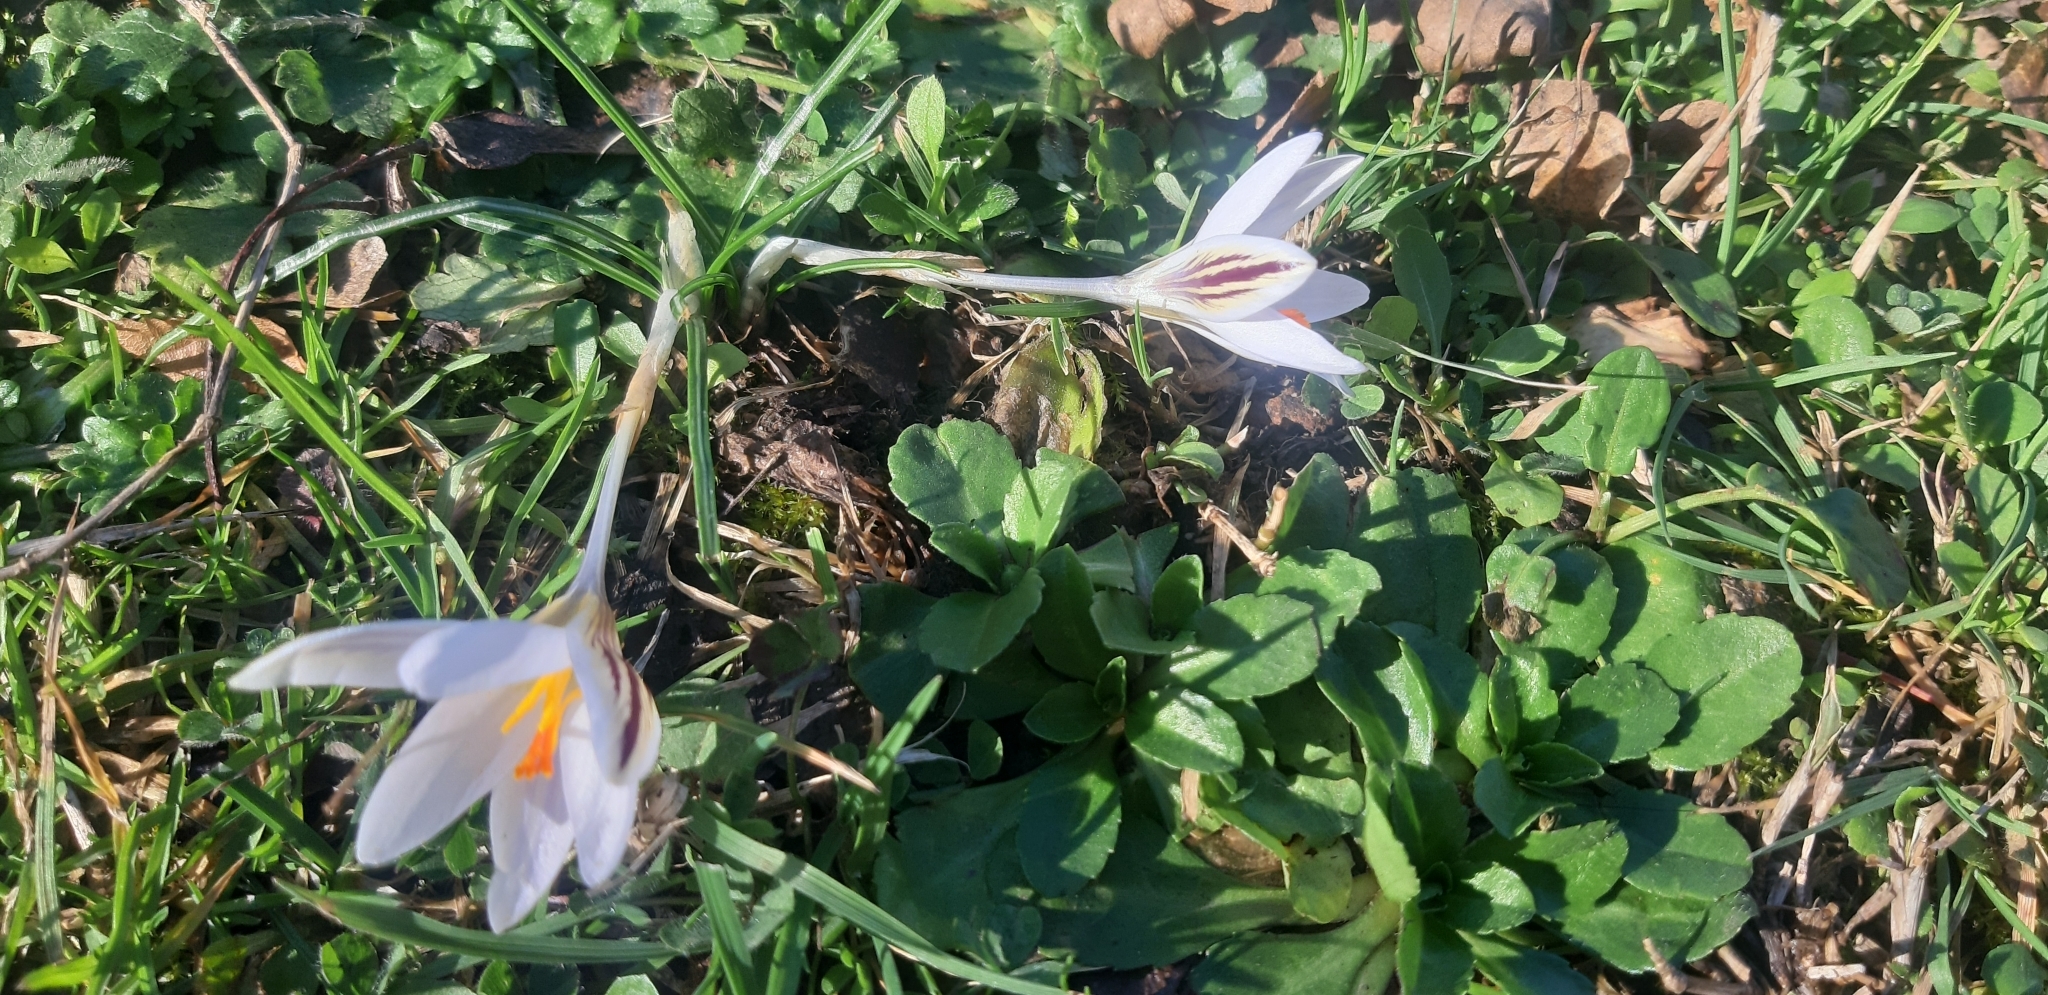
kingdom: Plantae
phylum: Tracheophyta
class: Liliopsida
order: Asparagales
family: Iridaceae
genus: Crocus
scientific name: Crocus biflorus
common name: Silvery crocus
